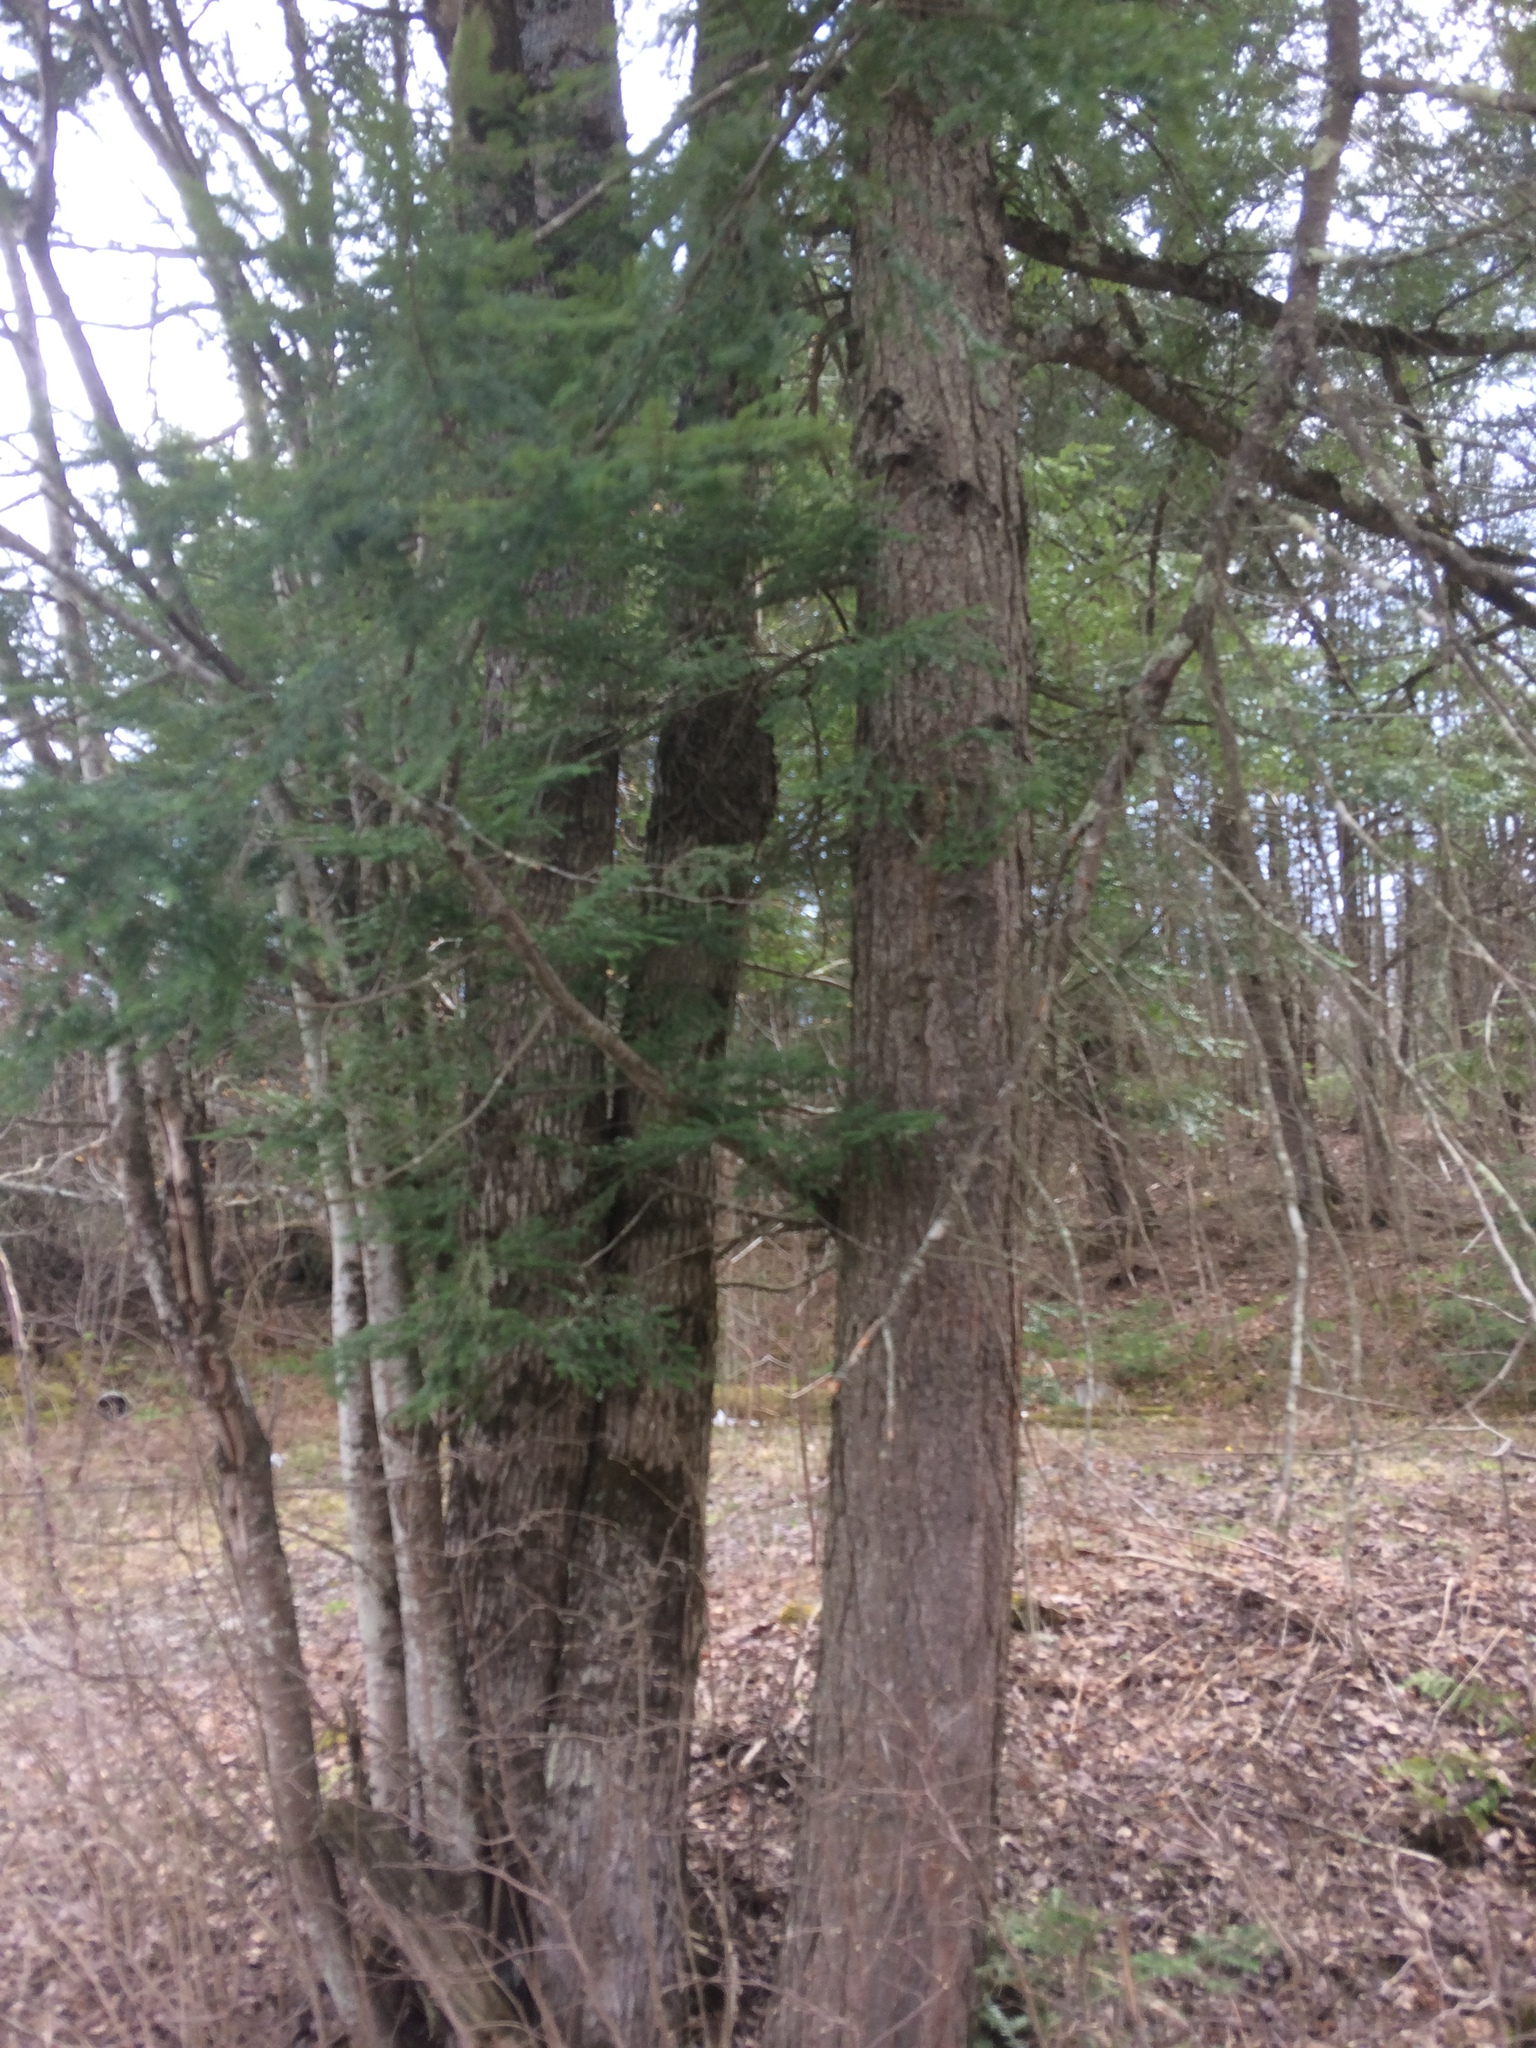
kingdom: Plantae
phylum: Tracheophyta
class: Pinopsida
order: Pinales
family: Pinaceae
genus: Tsuga
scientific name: Tsuga canadensis
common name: Eastern hemlock
